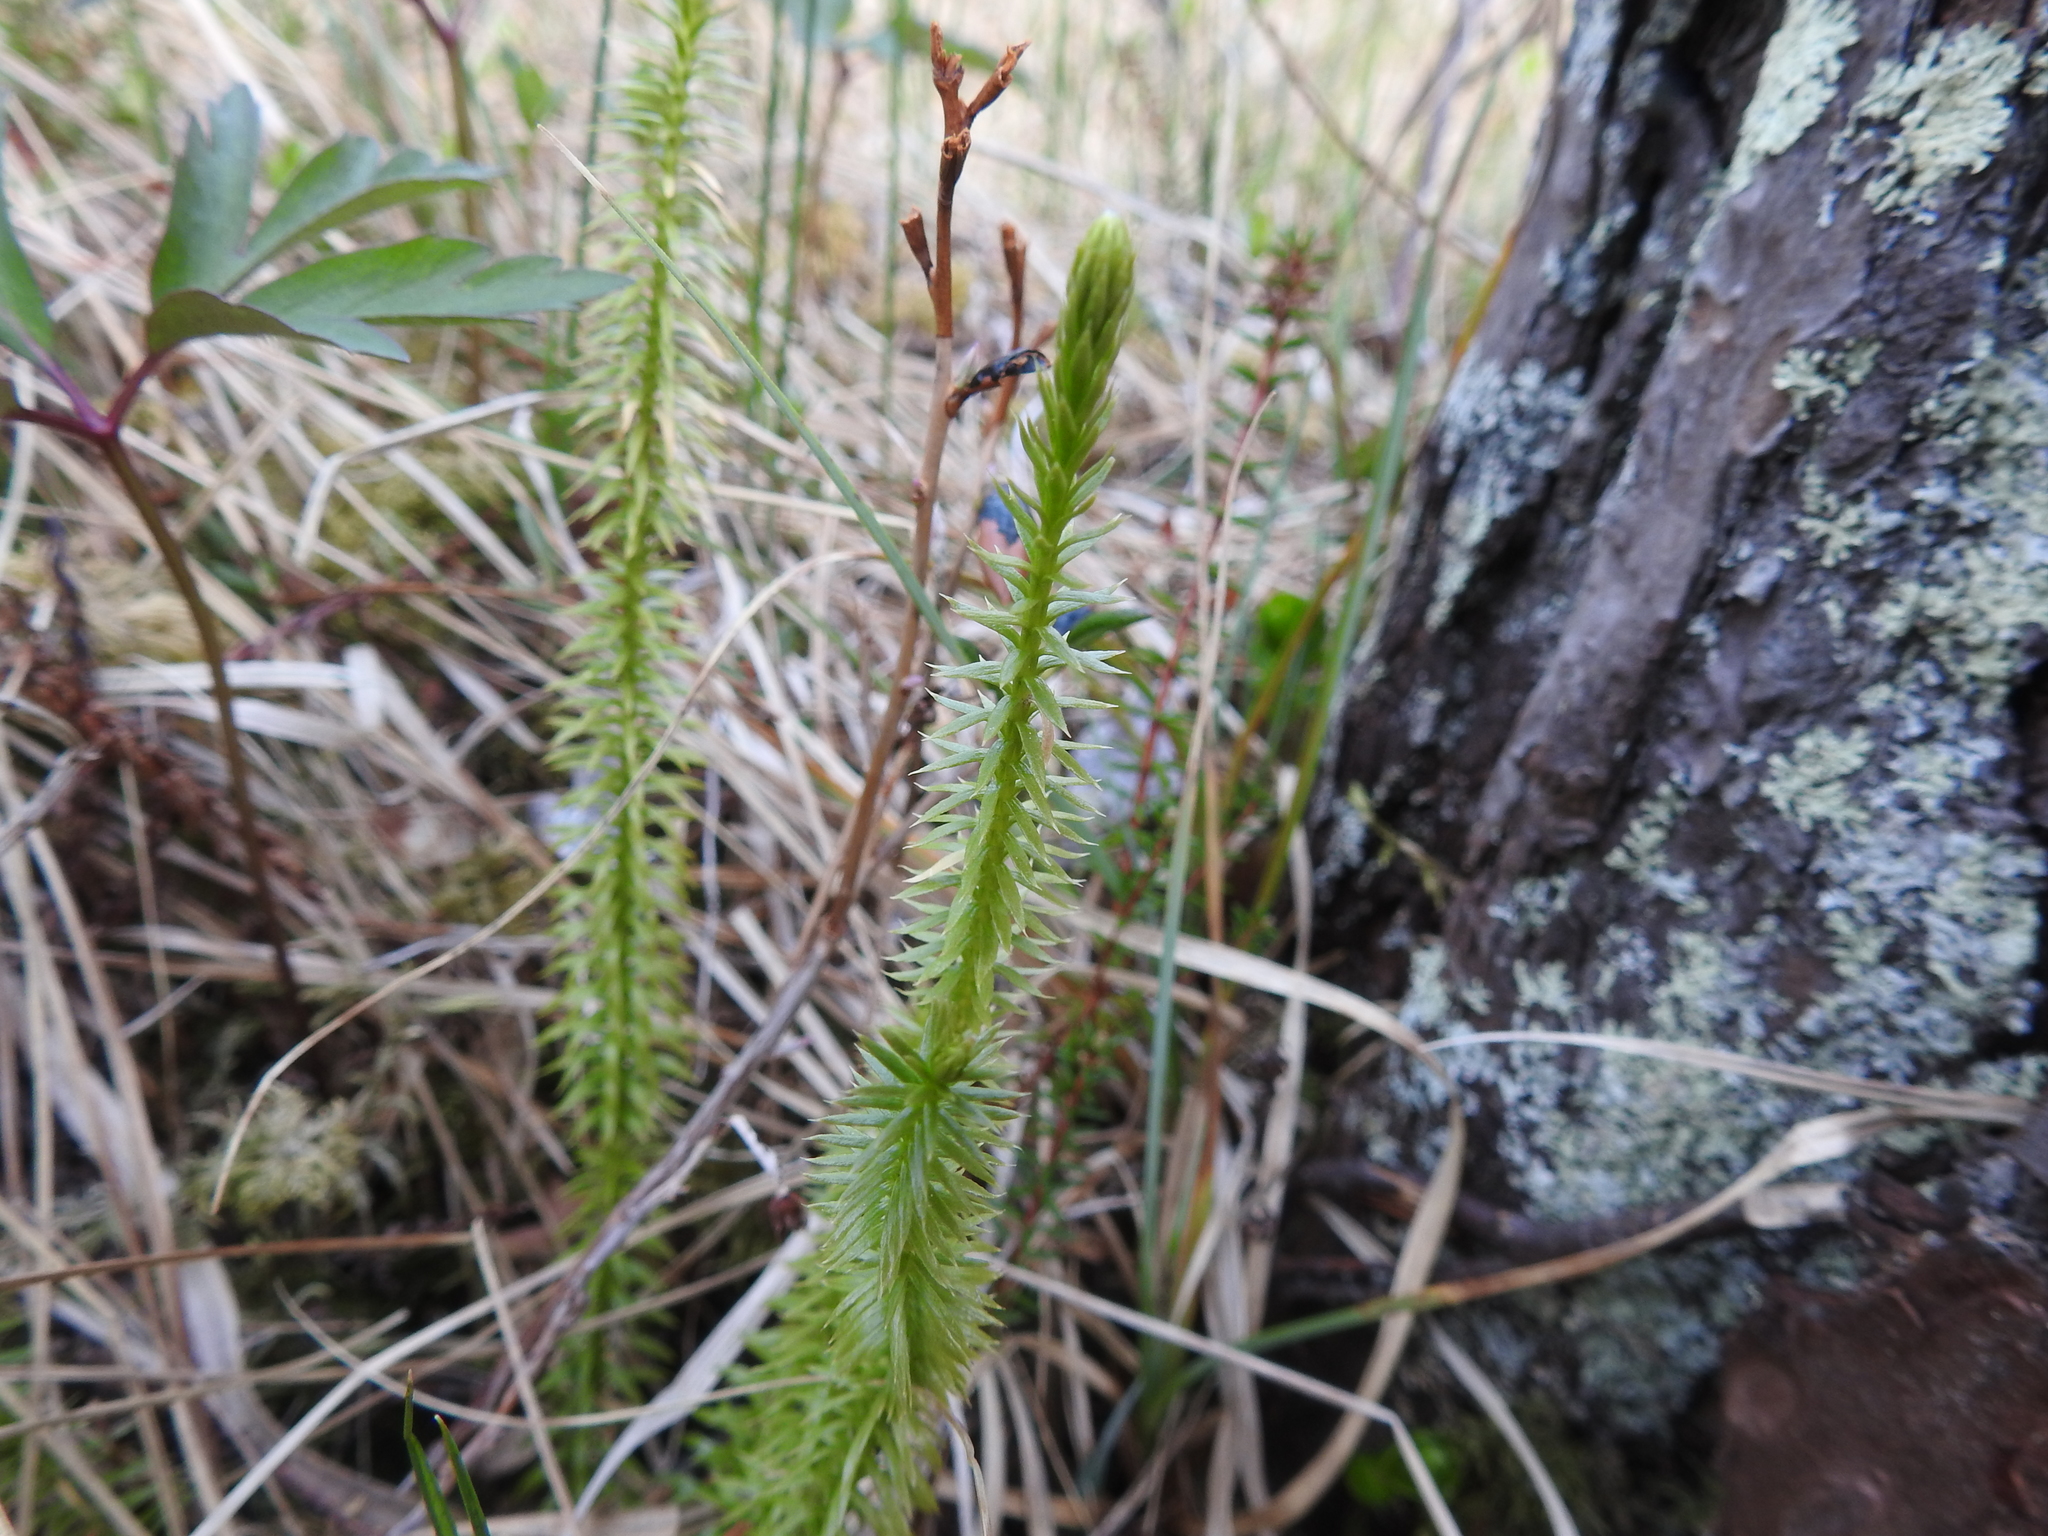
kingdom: Plantae
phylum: Tracheophyta
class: Lycopodiopsida
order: Lycopodiales
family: Lycopodiaceae
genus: Spinulum
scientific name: Spinulum annotinum
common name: Interrupted club-moss
